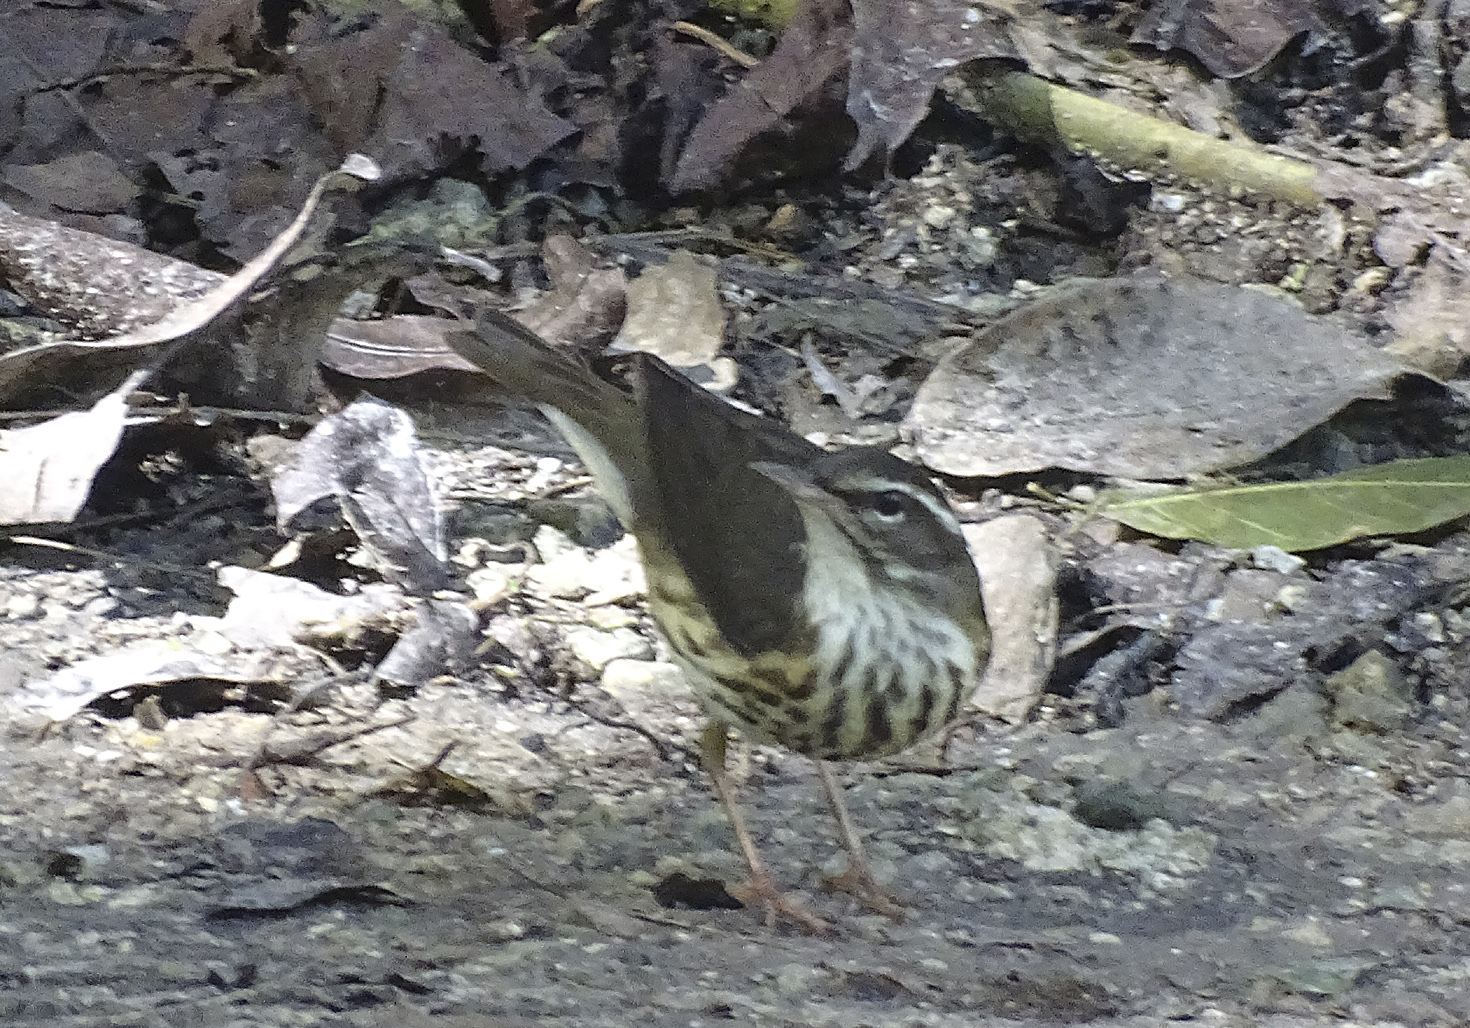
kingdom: Animalia
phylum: Chordata
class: Aves
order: Passeriformes
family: Parulidae
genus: Parkesia
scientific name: Parkesia motacilla
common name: Louisiana waterthrush
